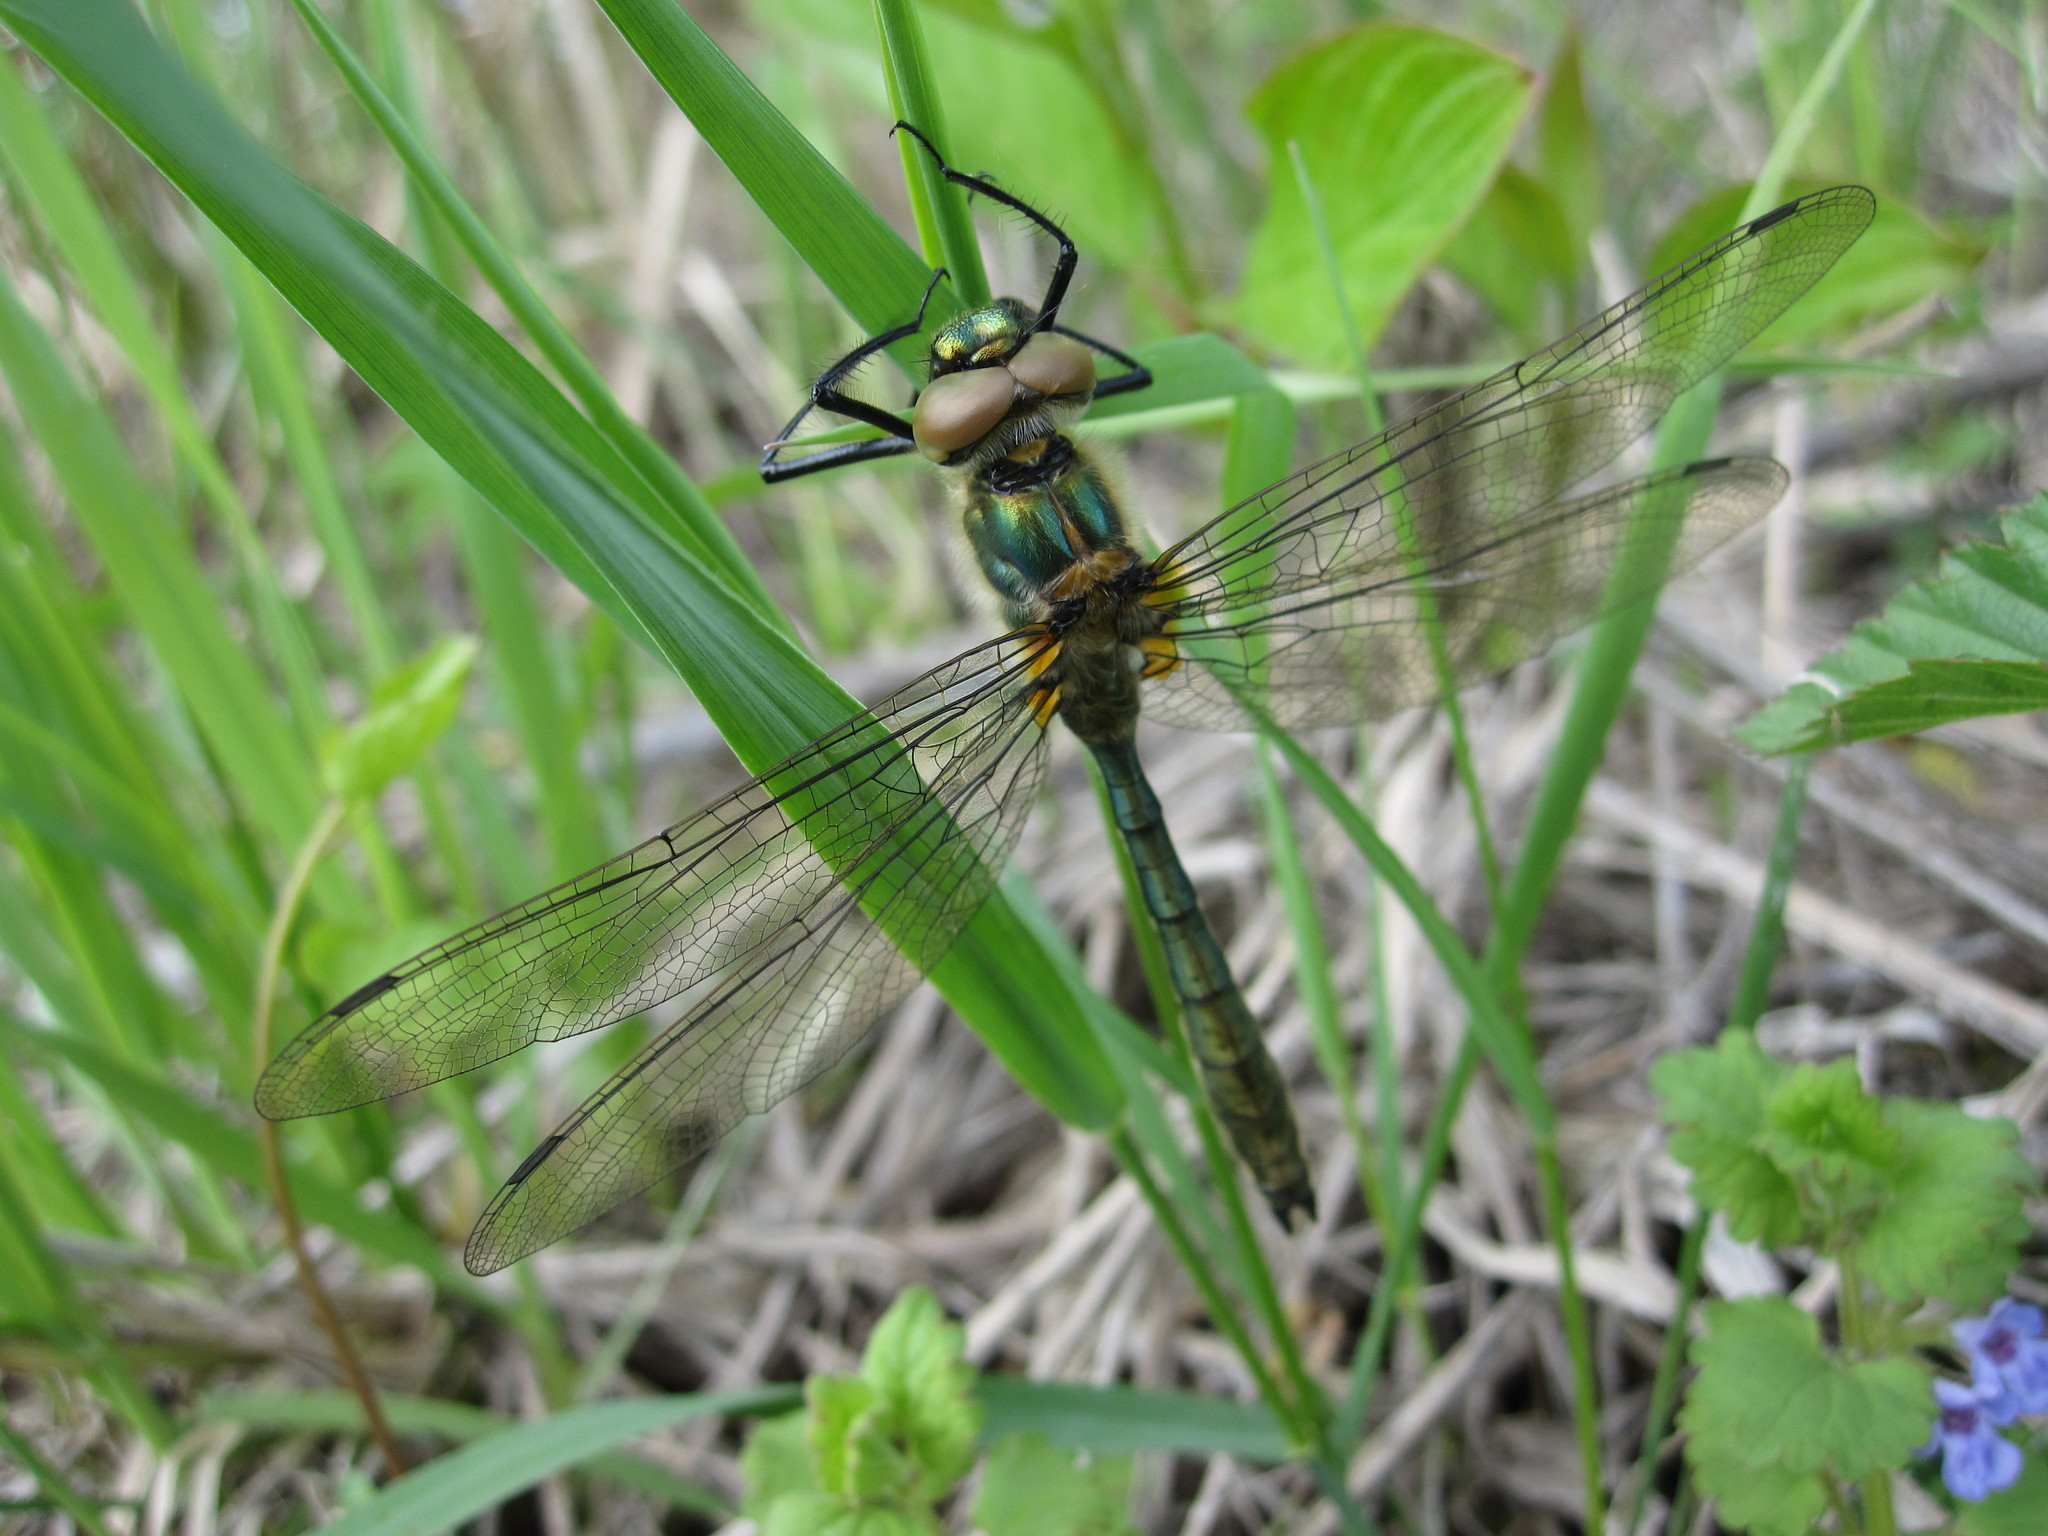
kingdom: Animalia
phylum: Arthropoda
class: Insecta
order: Odonata
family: Corduliidae
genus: Cordulia
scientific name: Cordulia aenea
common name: Downy emerald
